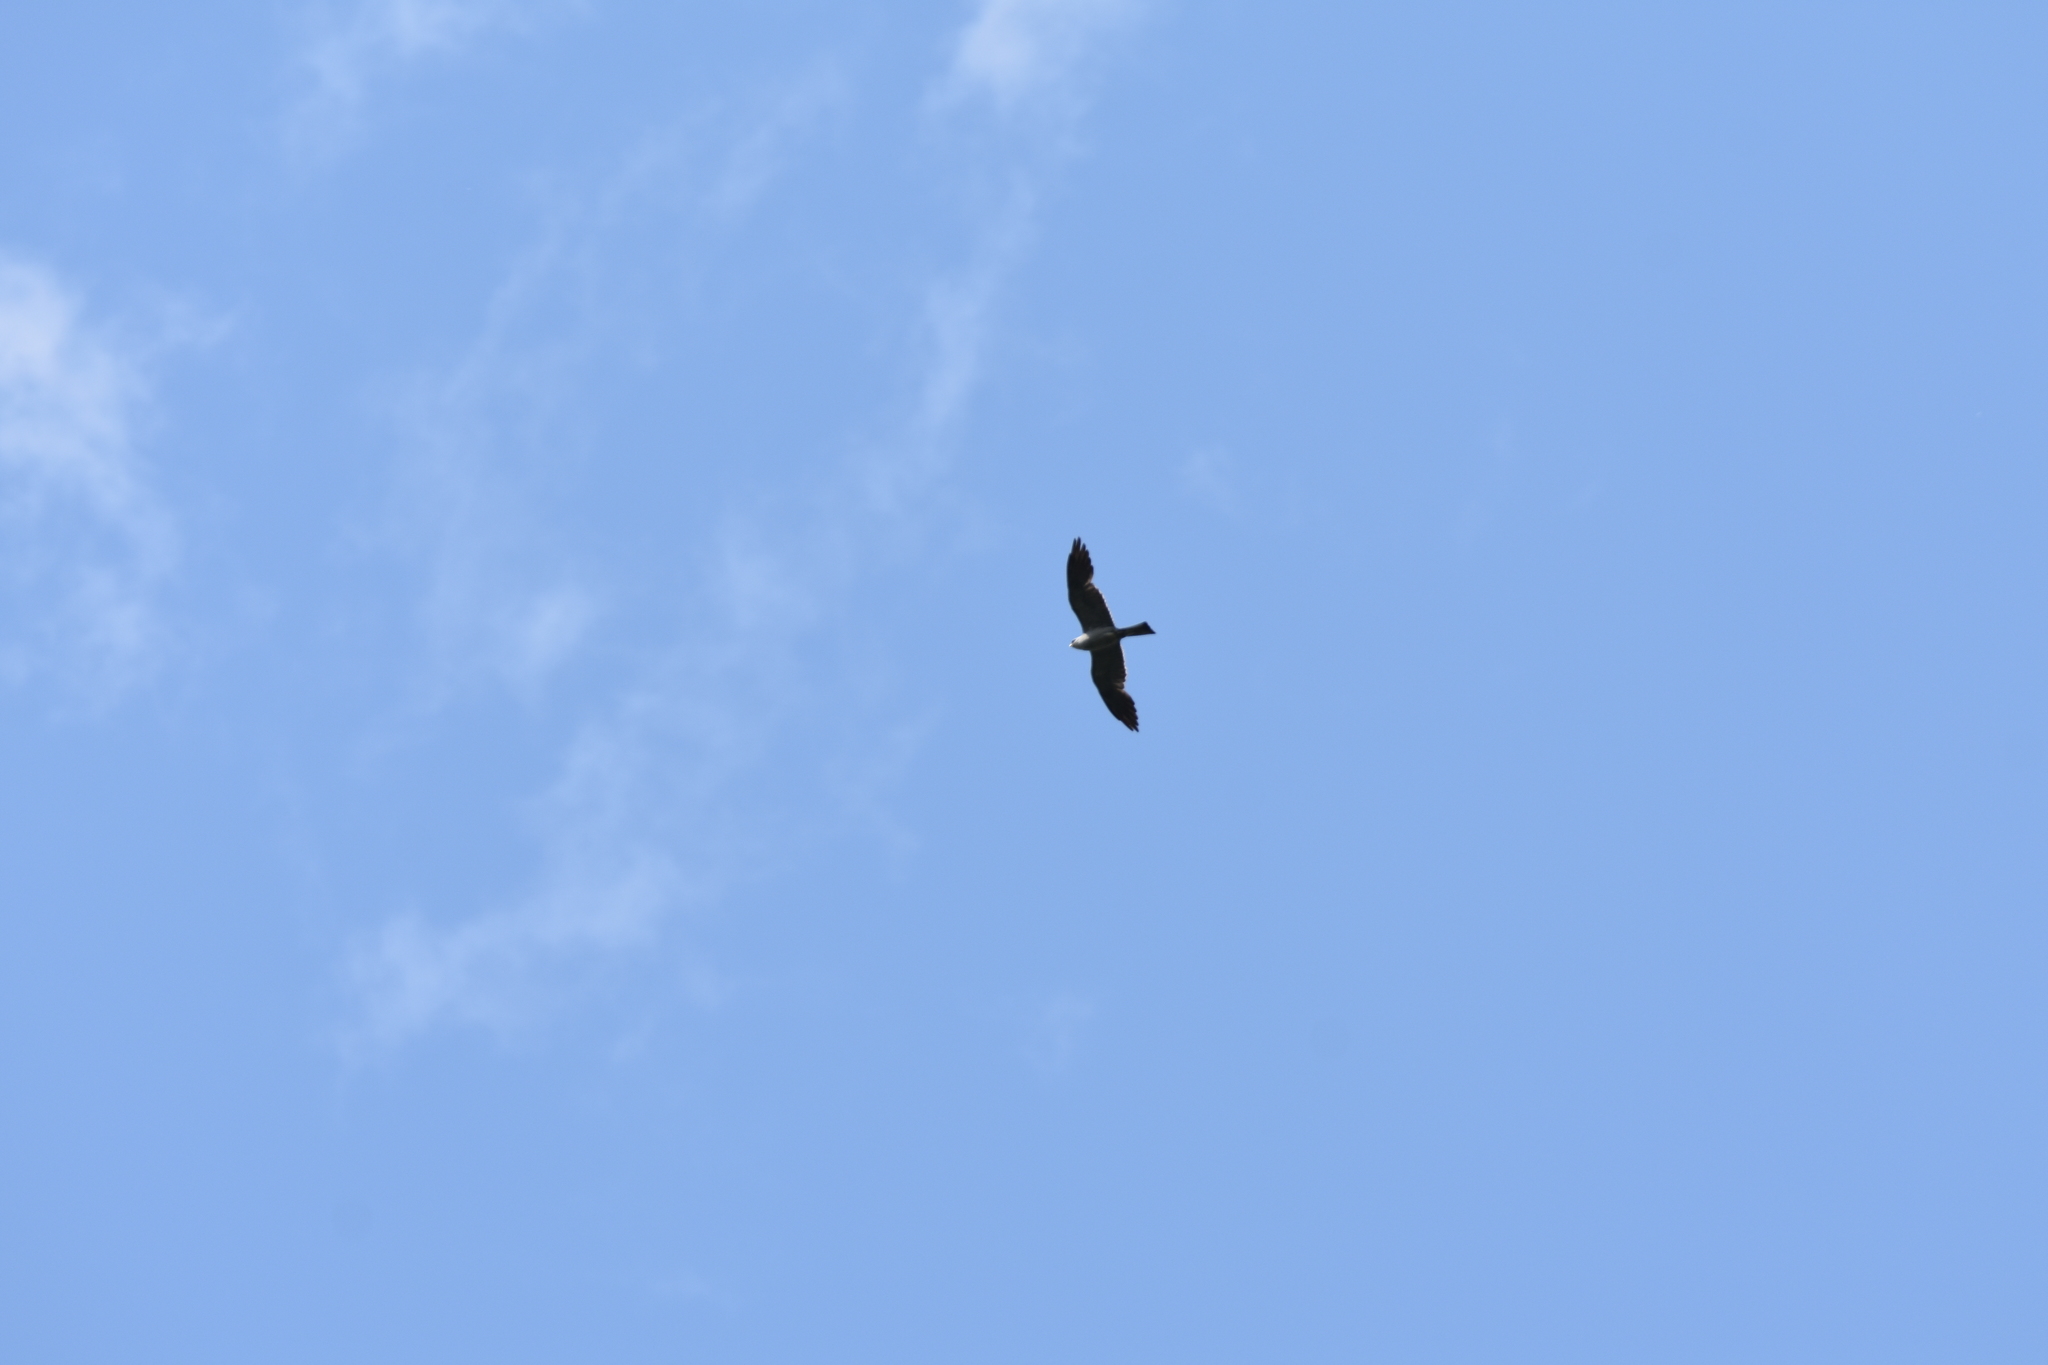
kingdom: Animalia
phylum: Chordata
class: Aves
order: Accipitriformes
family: Accipitridae
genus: Ictinia
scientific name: Ictinia mississippiensis
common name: Mississippi kite
